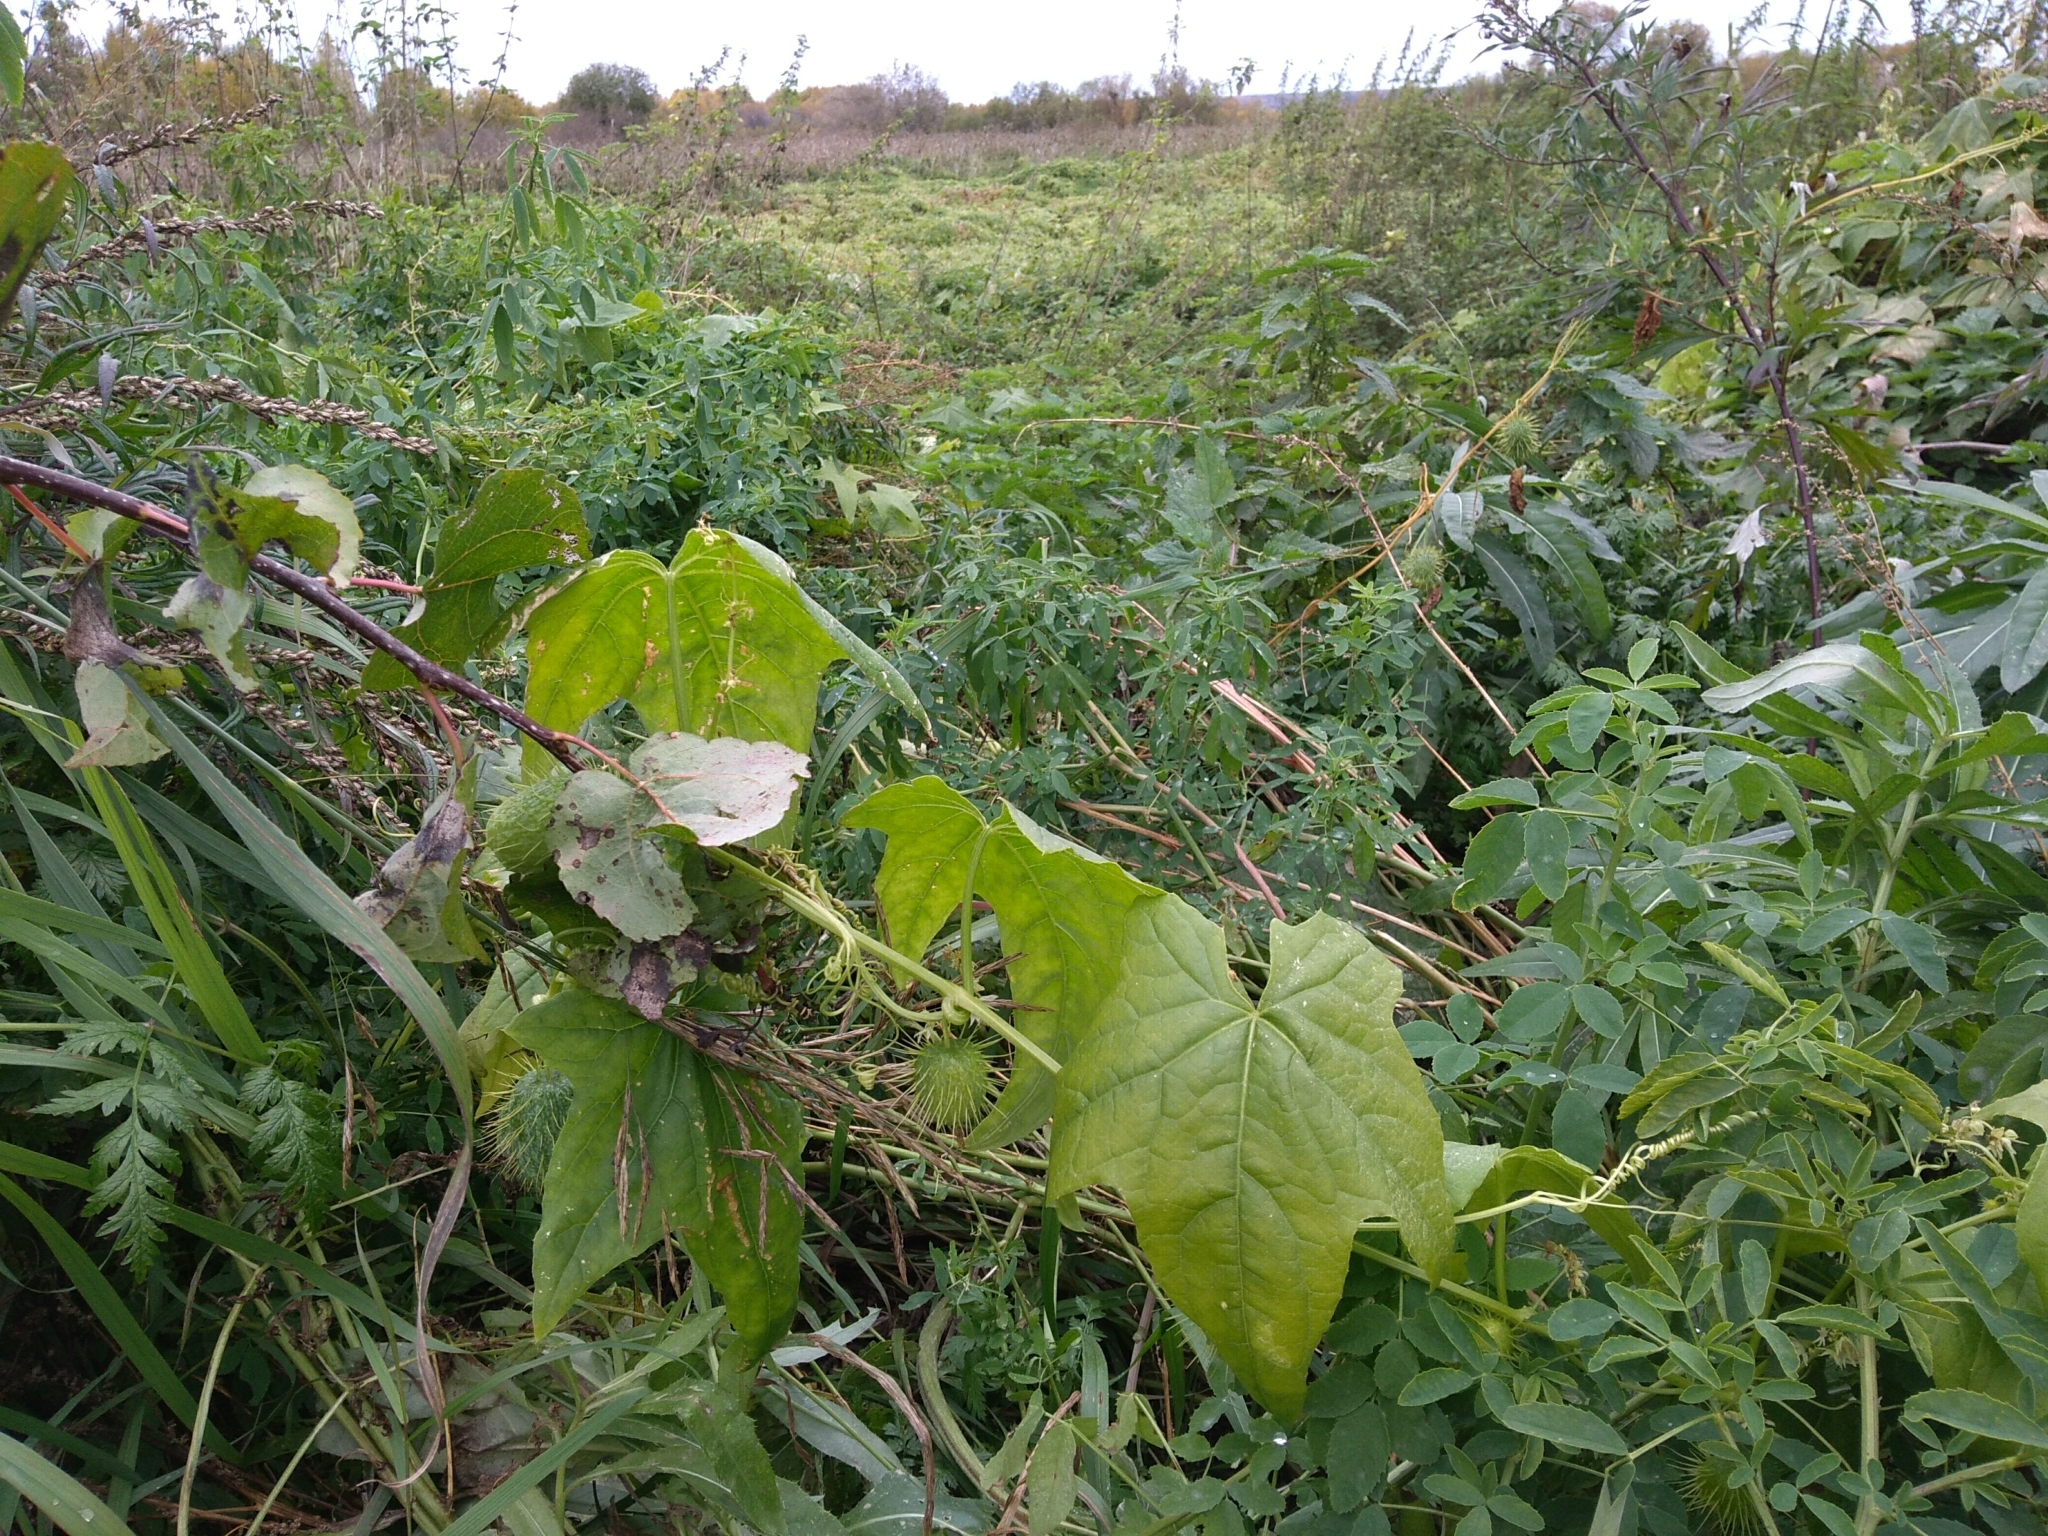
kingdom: Plantae
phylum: Tracheophyta
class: Magnoliopsida
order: Cucurbitales
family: Cucurbitaceae
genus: Echinocystis
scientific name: Echinocystis lobata
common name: Wild cucumber
